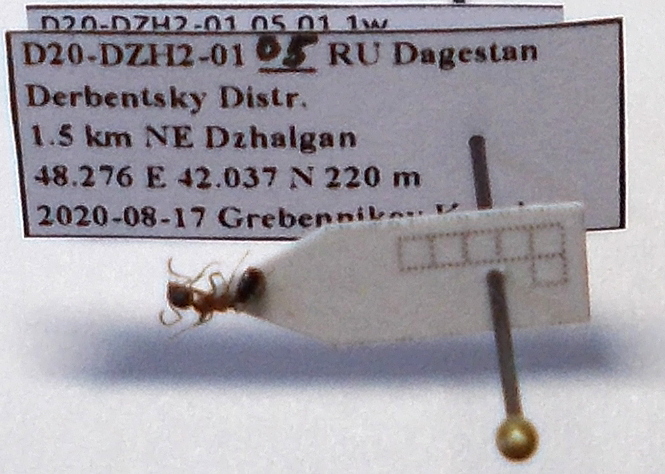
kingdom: Animalia
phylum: Arthropoda
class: Insecta
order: Hymenoptera
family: Formicidae
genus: Dolichoderus
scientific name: Dolichoderus quadripunctatus
